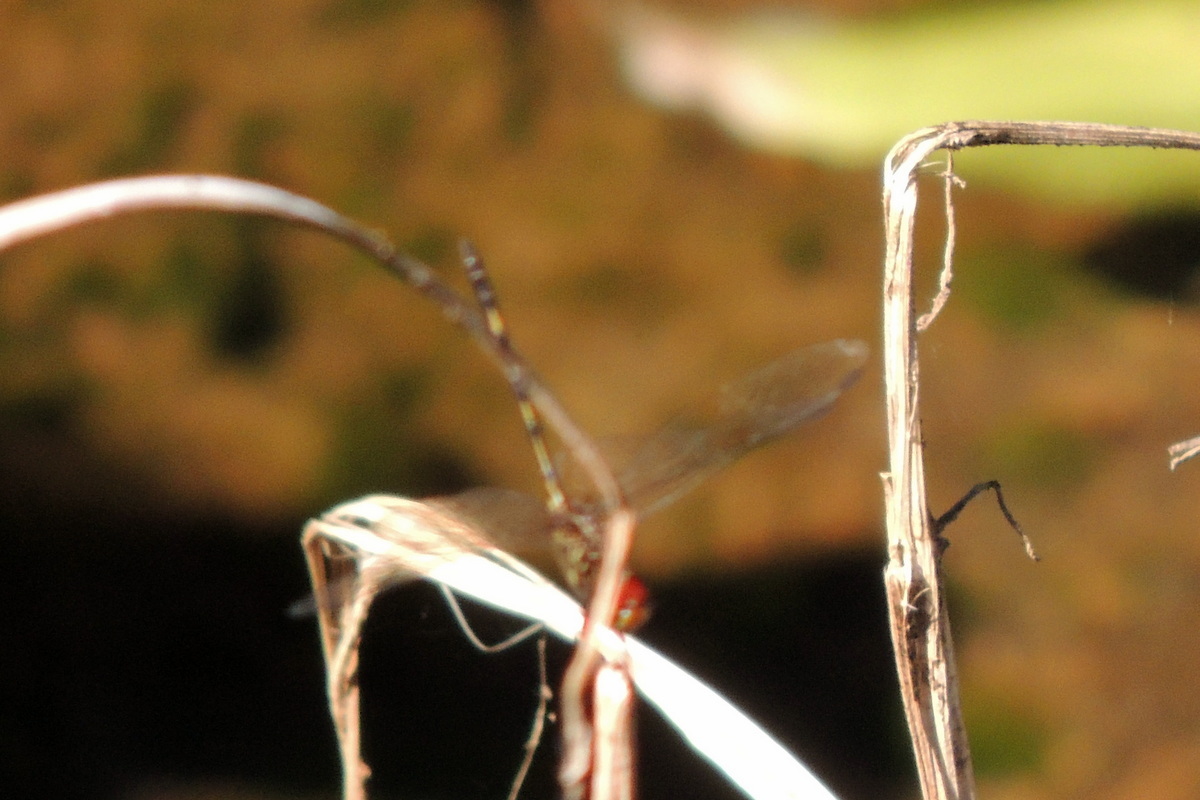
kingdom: Animalia
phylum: Arthropoda
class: Insecta
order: Odonata
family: Libellulidae
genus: Dythemis
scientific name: Dythemis sterilis
